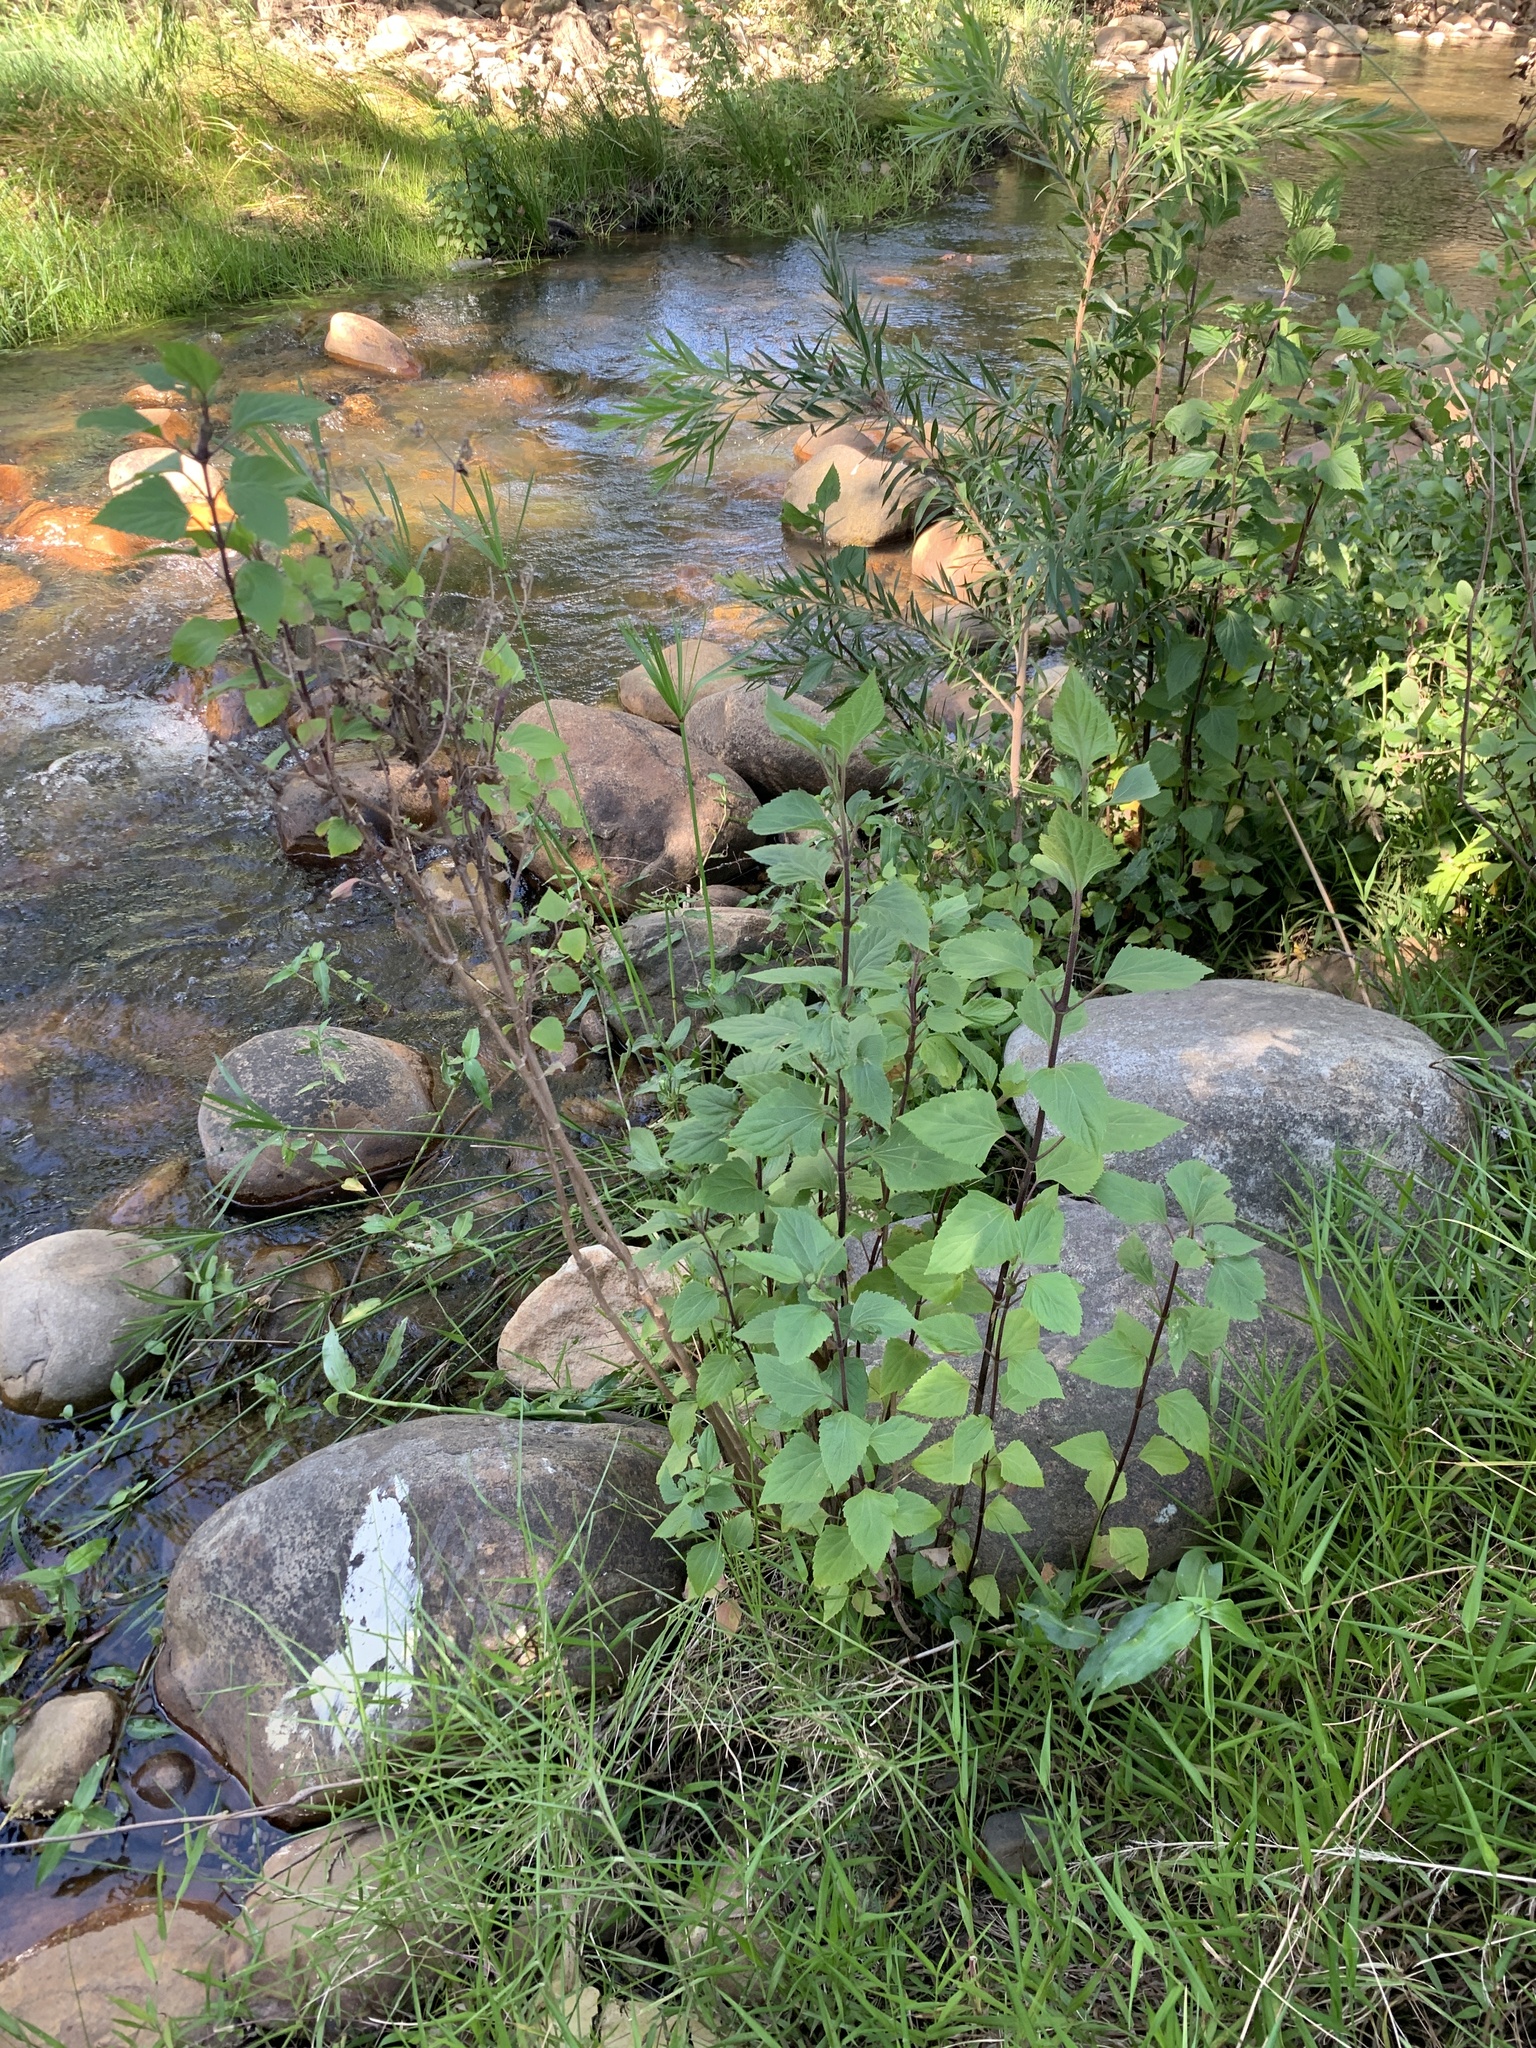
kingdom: Plantae
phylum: Tracheophyta
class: Magnoliopsida
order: Asterales
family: Asteraceae
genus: Ageratina
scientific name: Ageratina adenophora
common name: Sticky snakeroot
